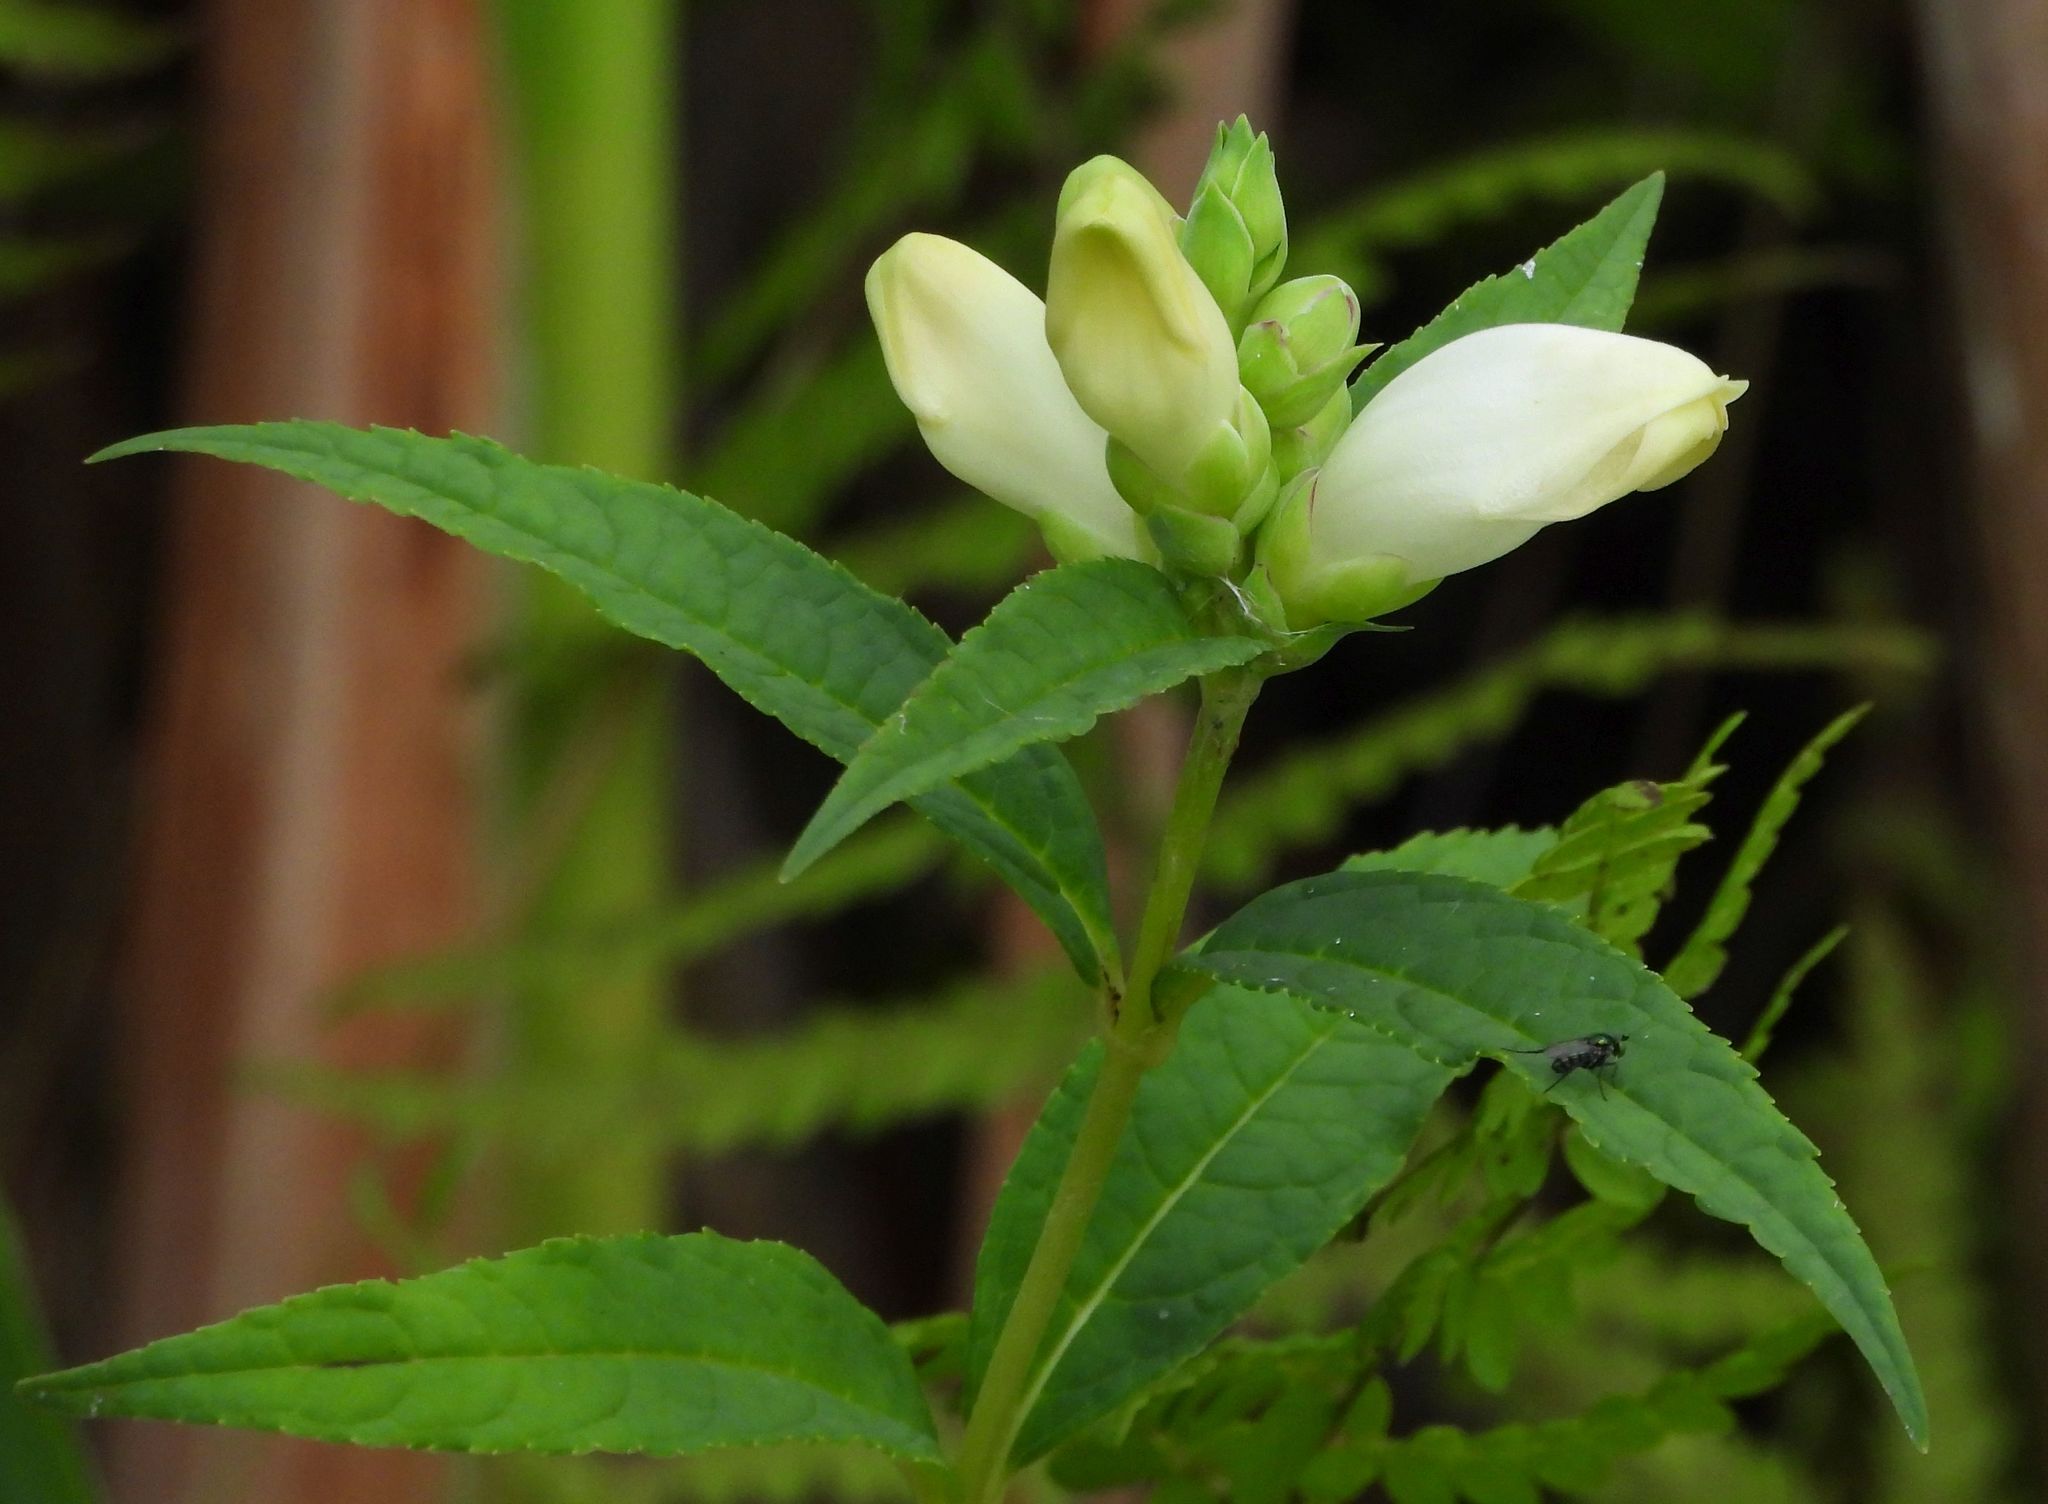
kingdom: Plantae
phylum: Tracheophyta
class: Magnoliopsida
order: Lamiales
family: Plantaginaceae
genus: Chelone
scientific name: Chelone glabra
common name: Snakehead
